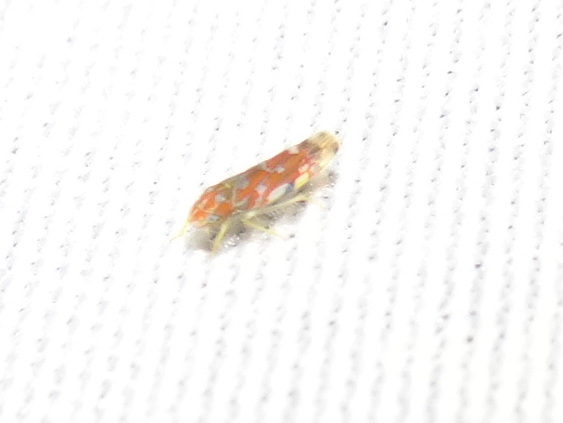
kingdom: Animalia
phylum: Arthropoda
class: Insecta
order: Hemiptera
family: Cicadellidae
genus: Erythroneura
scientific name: Erythroneura rubra
